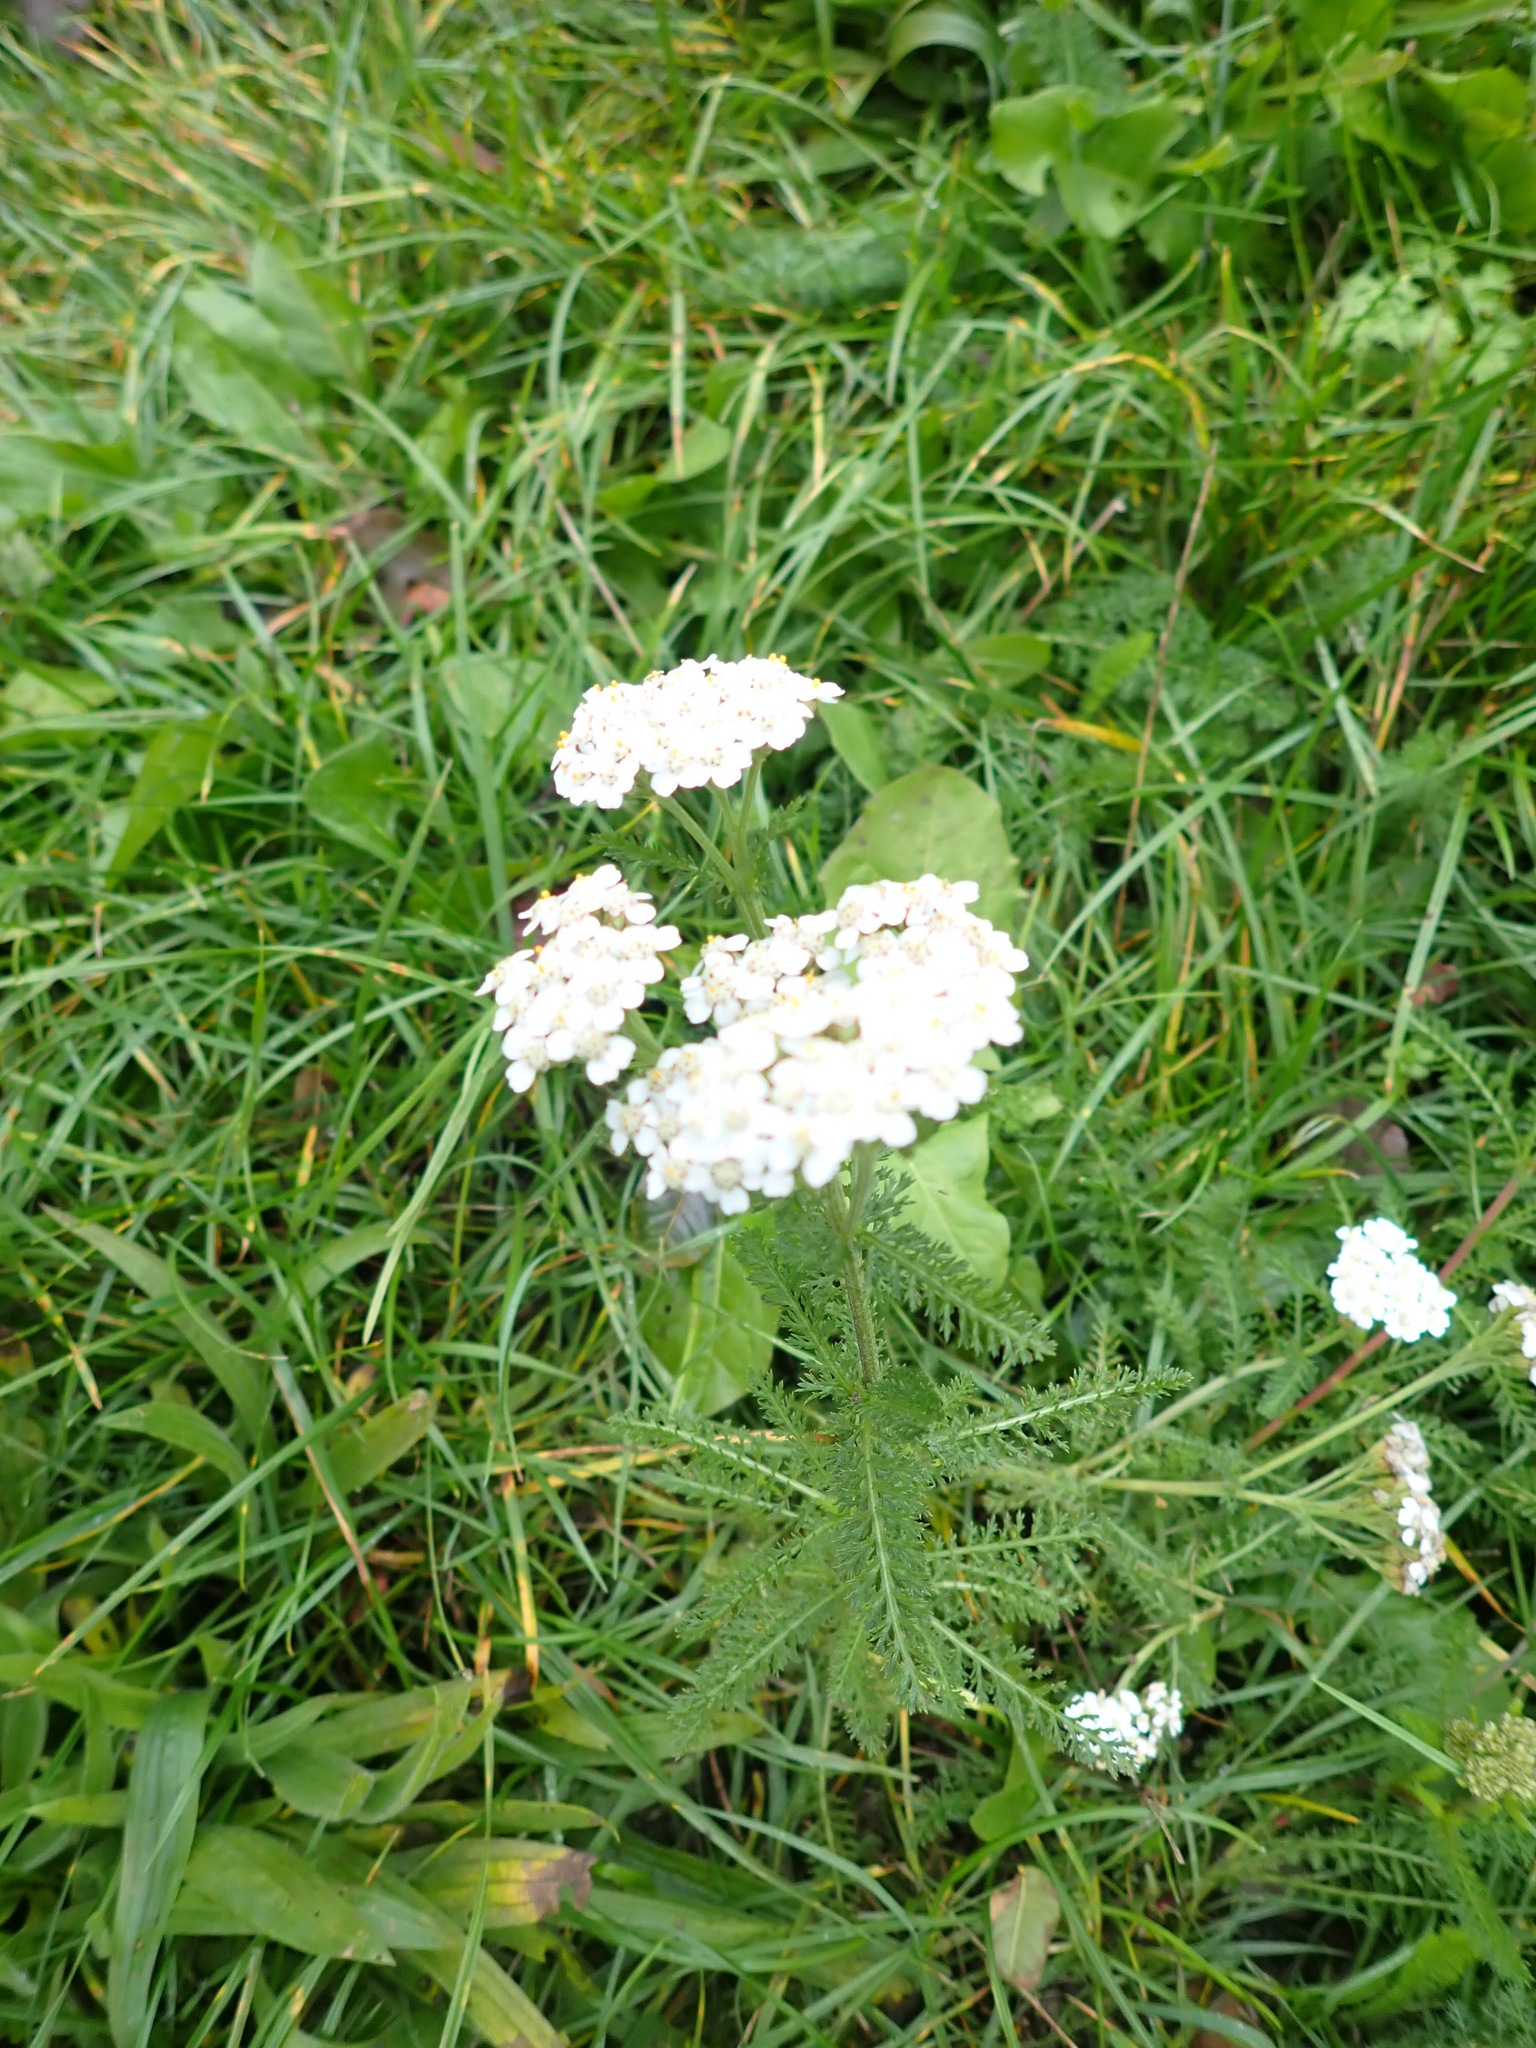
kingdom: Plantae
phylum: Tracheophyta
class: Magnoliopsida
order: Asterales
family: Asteraceae
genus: Achillea
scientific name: Achillea millefolium
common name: Yarrow
